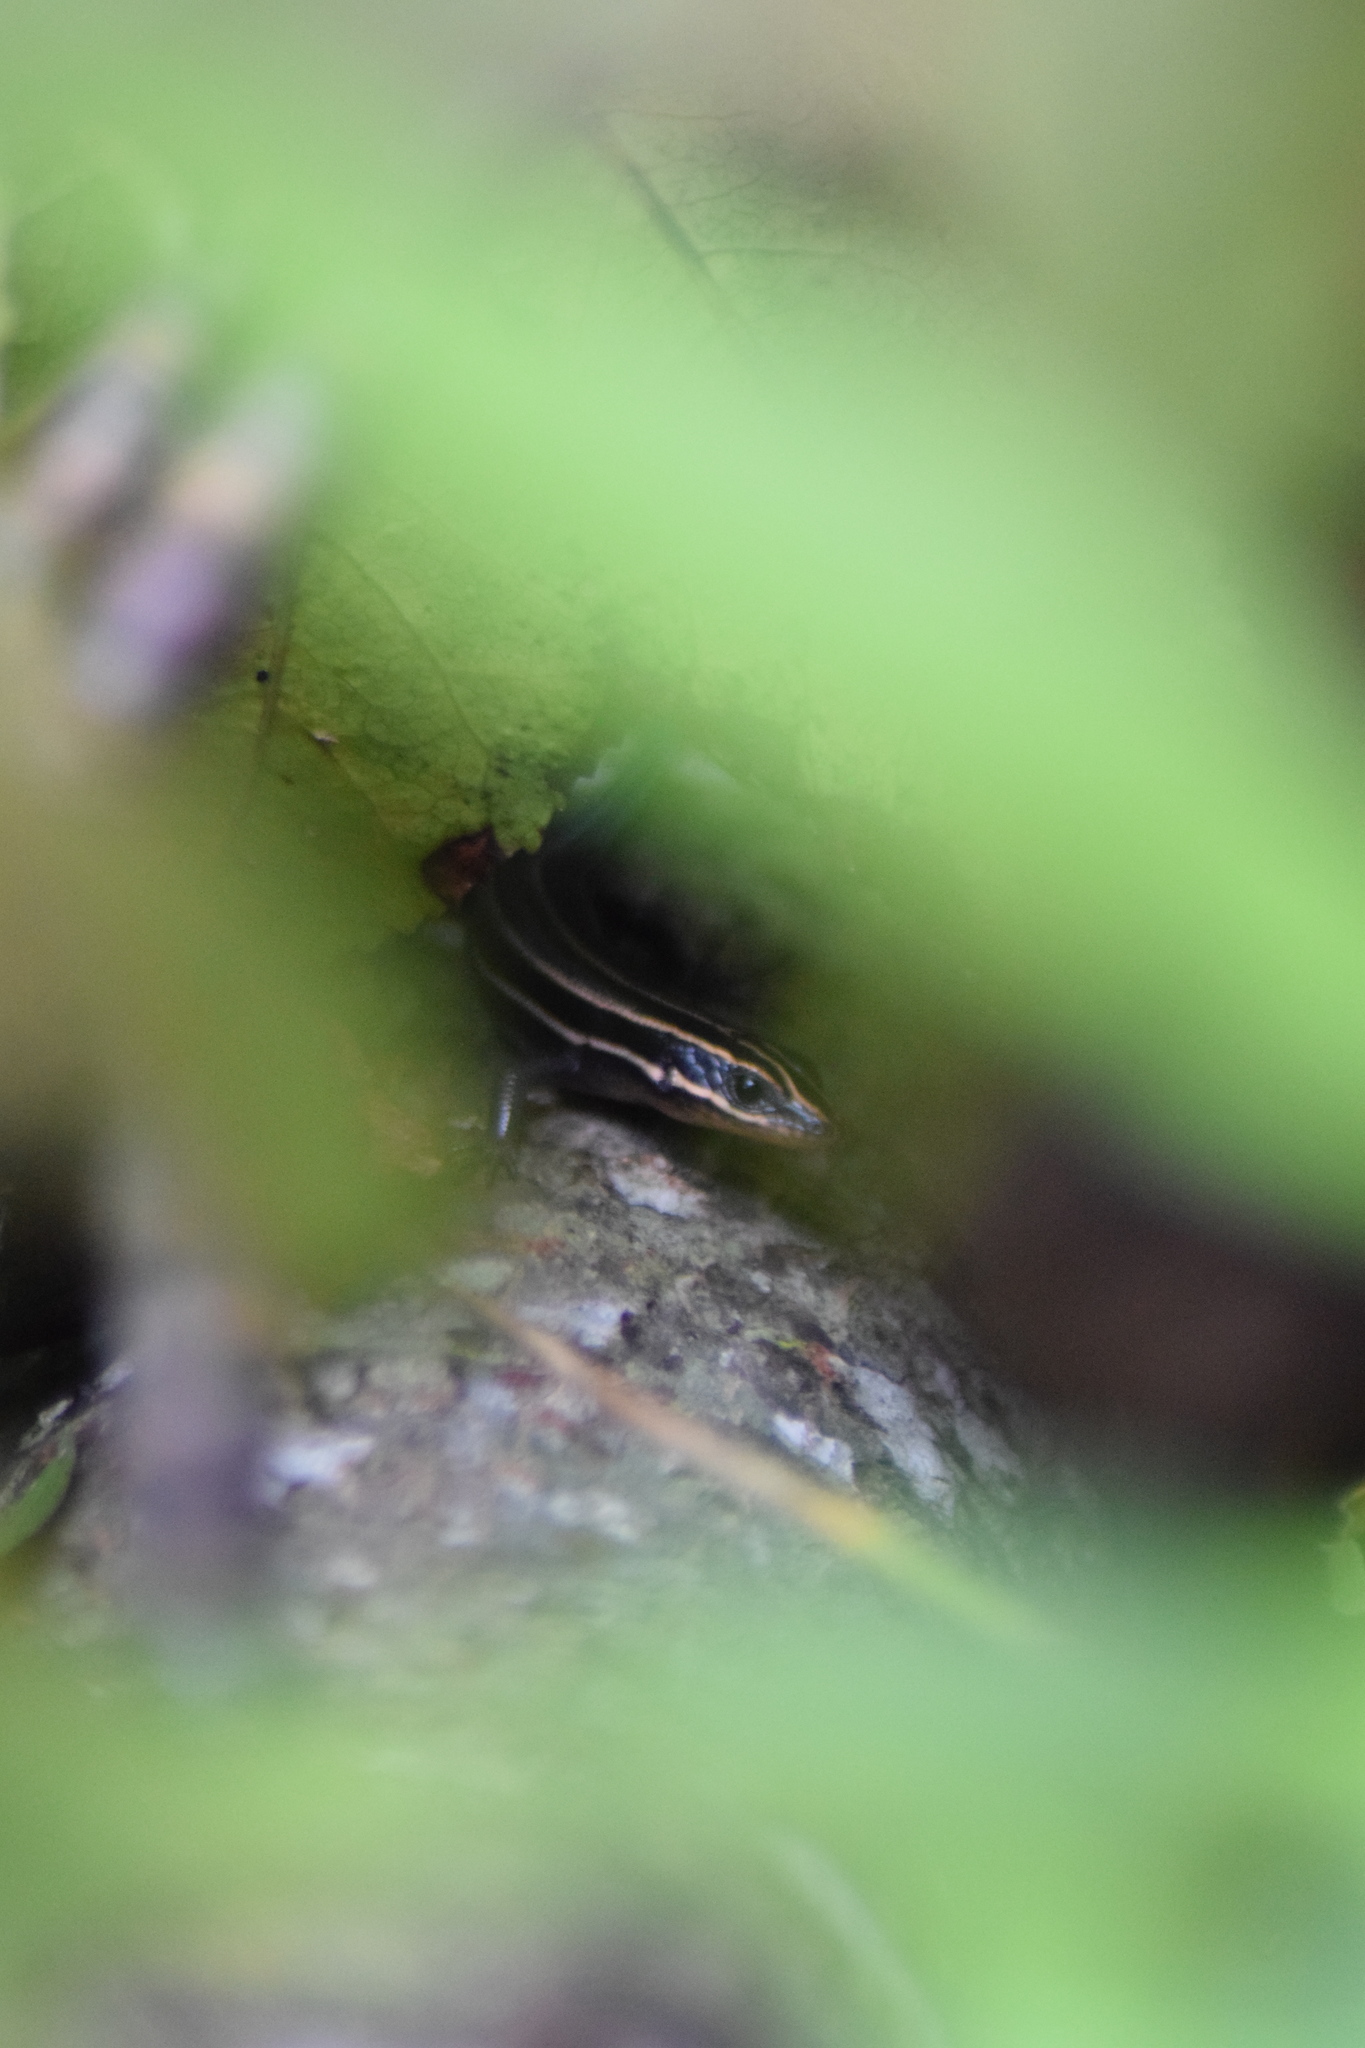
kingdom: Animalia
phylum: Chordata
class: Squamata
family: Scincidae
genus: Plestiodon
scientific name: Plestiodon fasciatus
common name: Five-lined skink
